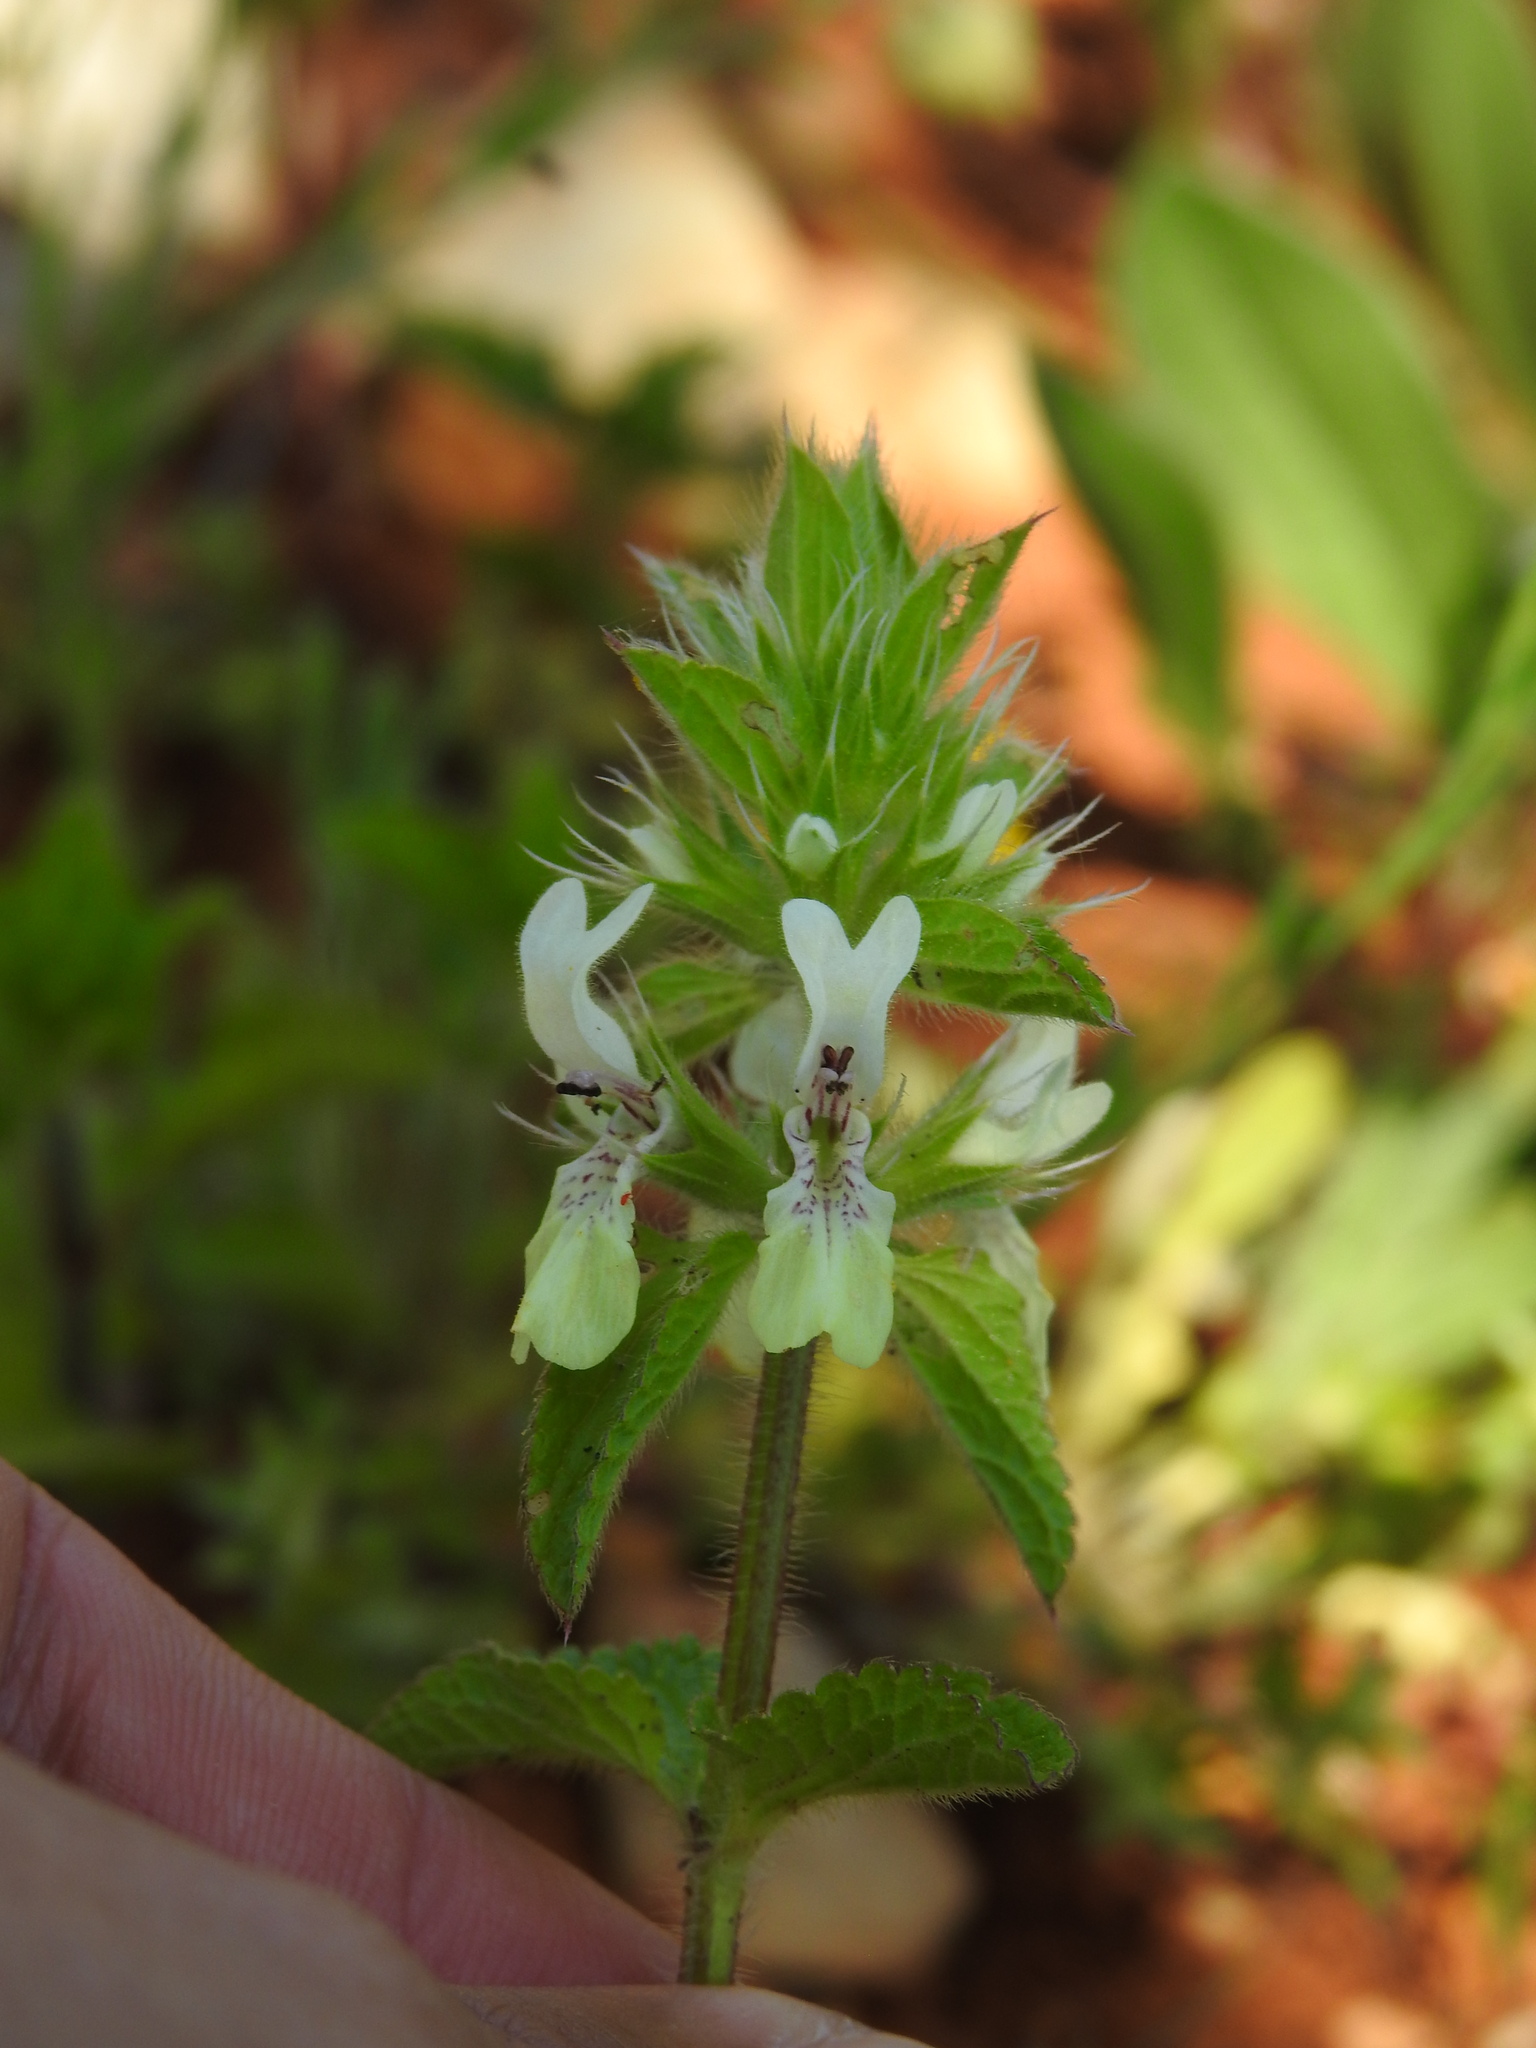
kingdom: Plantae
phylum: Tracheophyta
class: Magnoliopsida
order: Lamiales
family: Lamiaceae
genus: Stachys
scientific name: Stachys ocymastrum
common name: Italian hedgenettle
